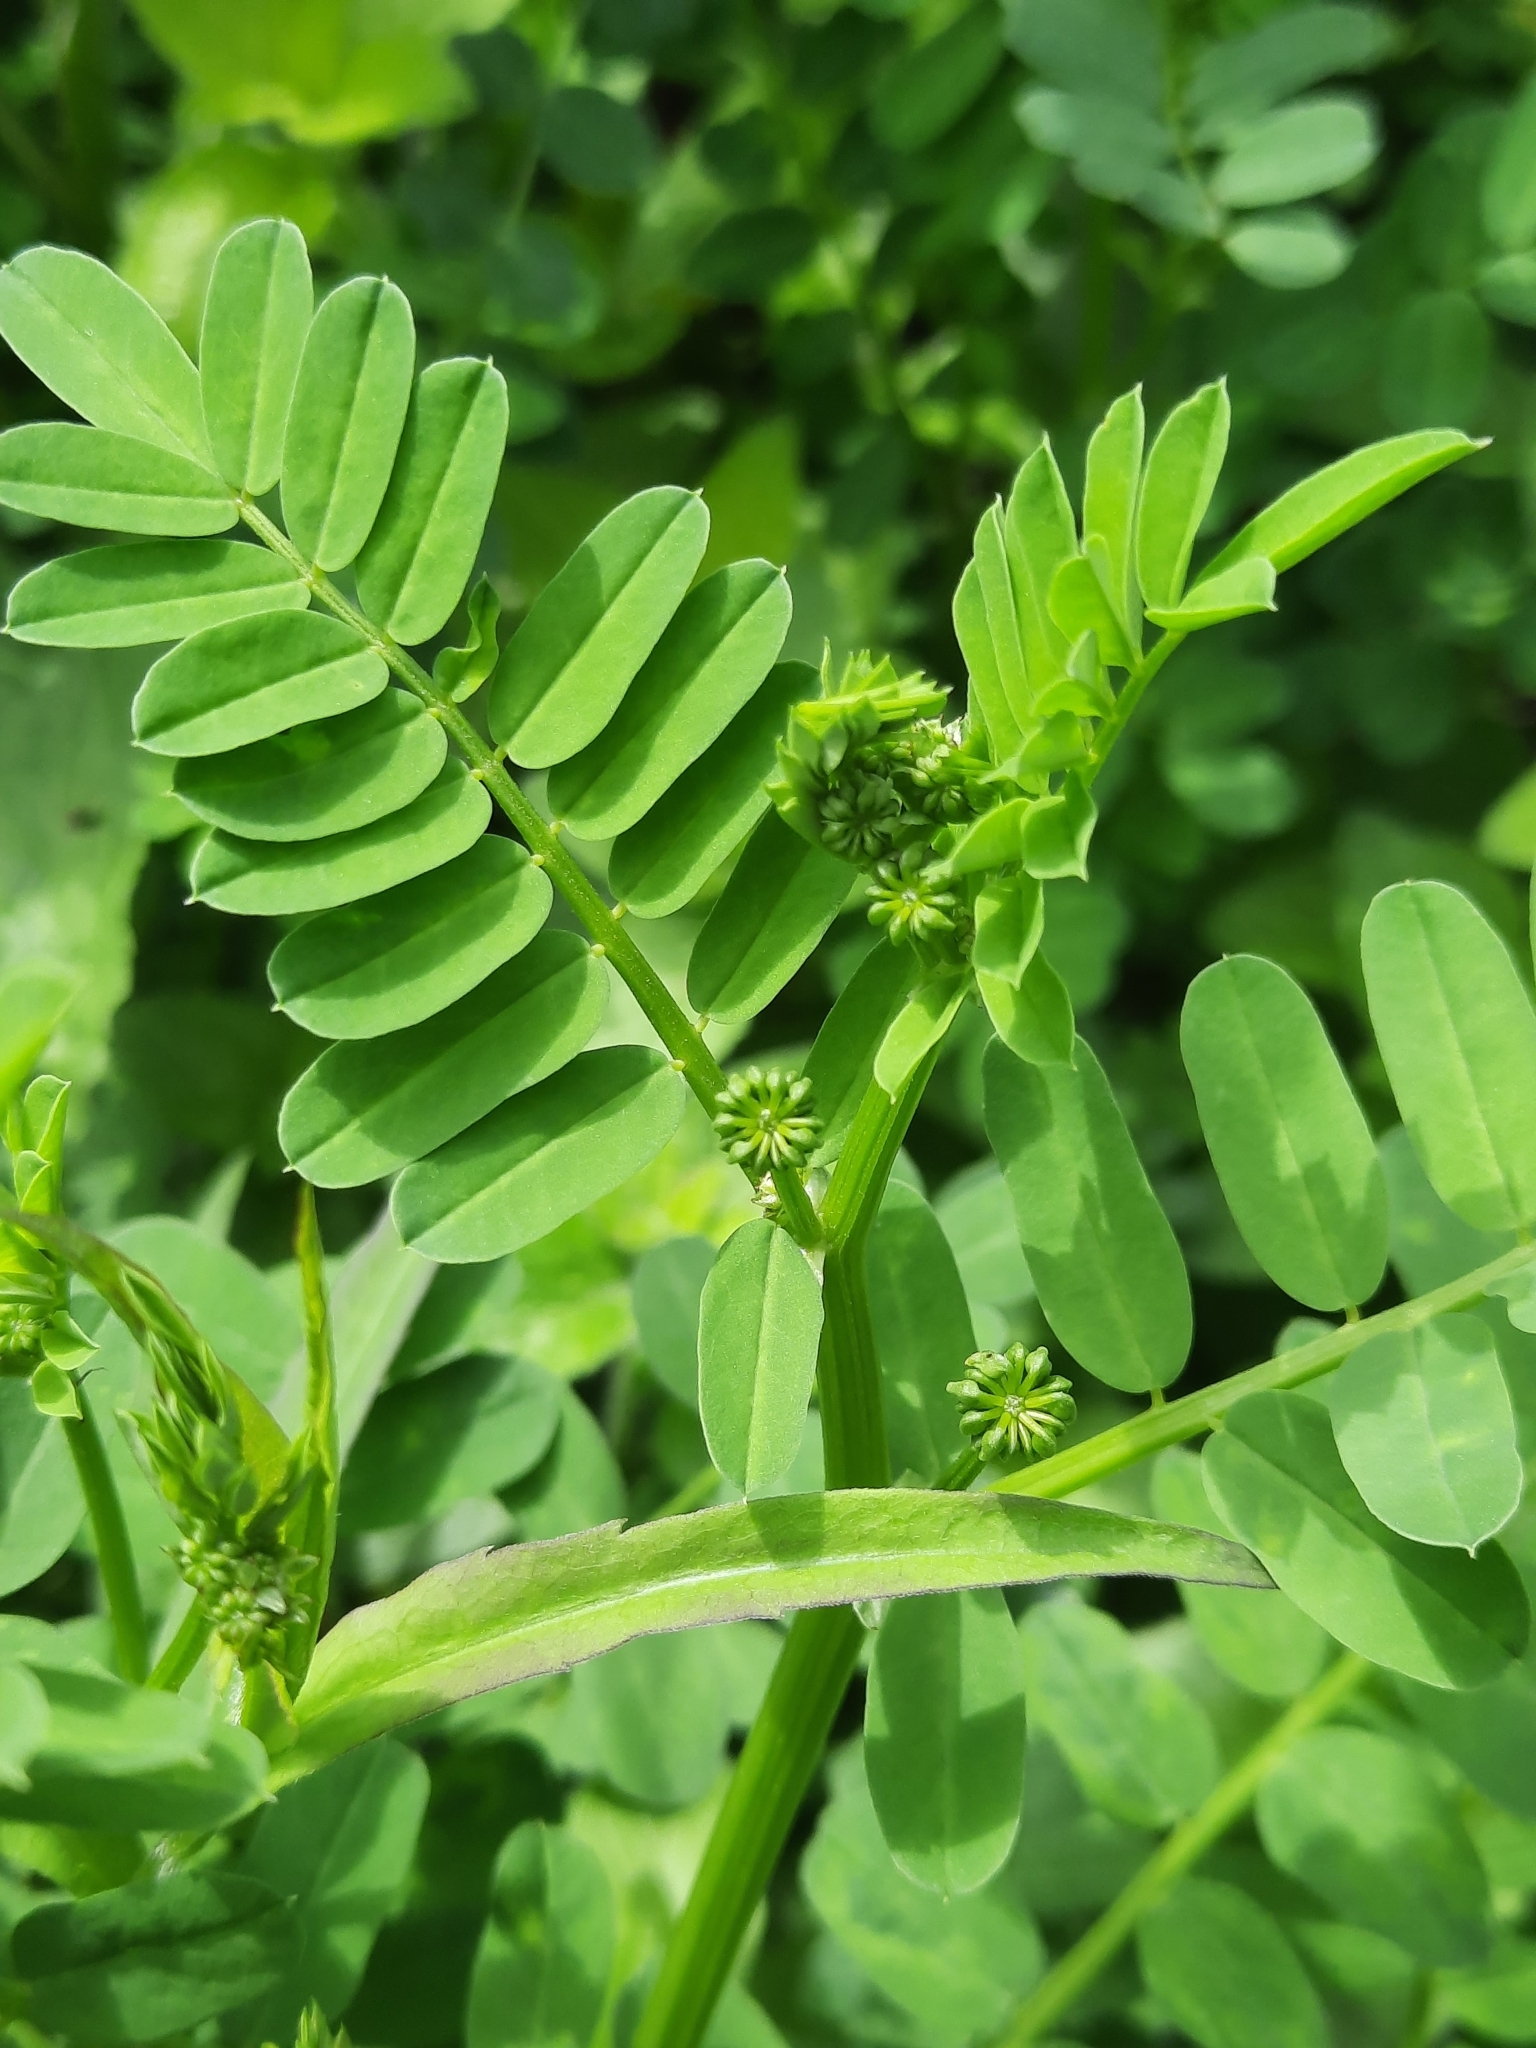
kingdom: Plantae
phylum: Tracheophyta
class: Magnoliopsida
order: Fabales
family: Fabaceae
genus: Coronilla
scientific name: Coronilla varia
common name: Crownvetch
